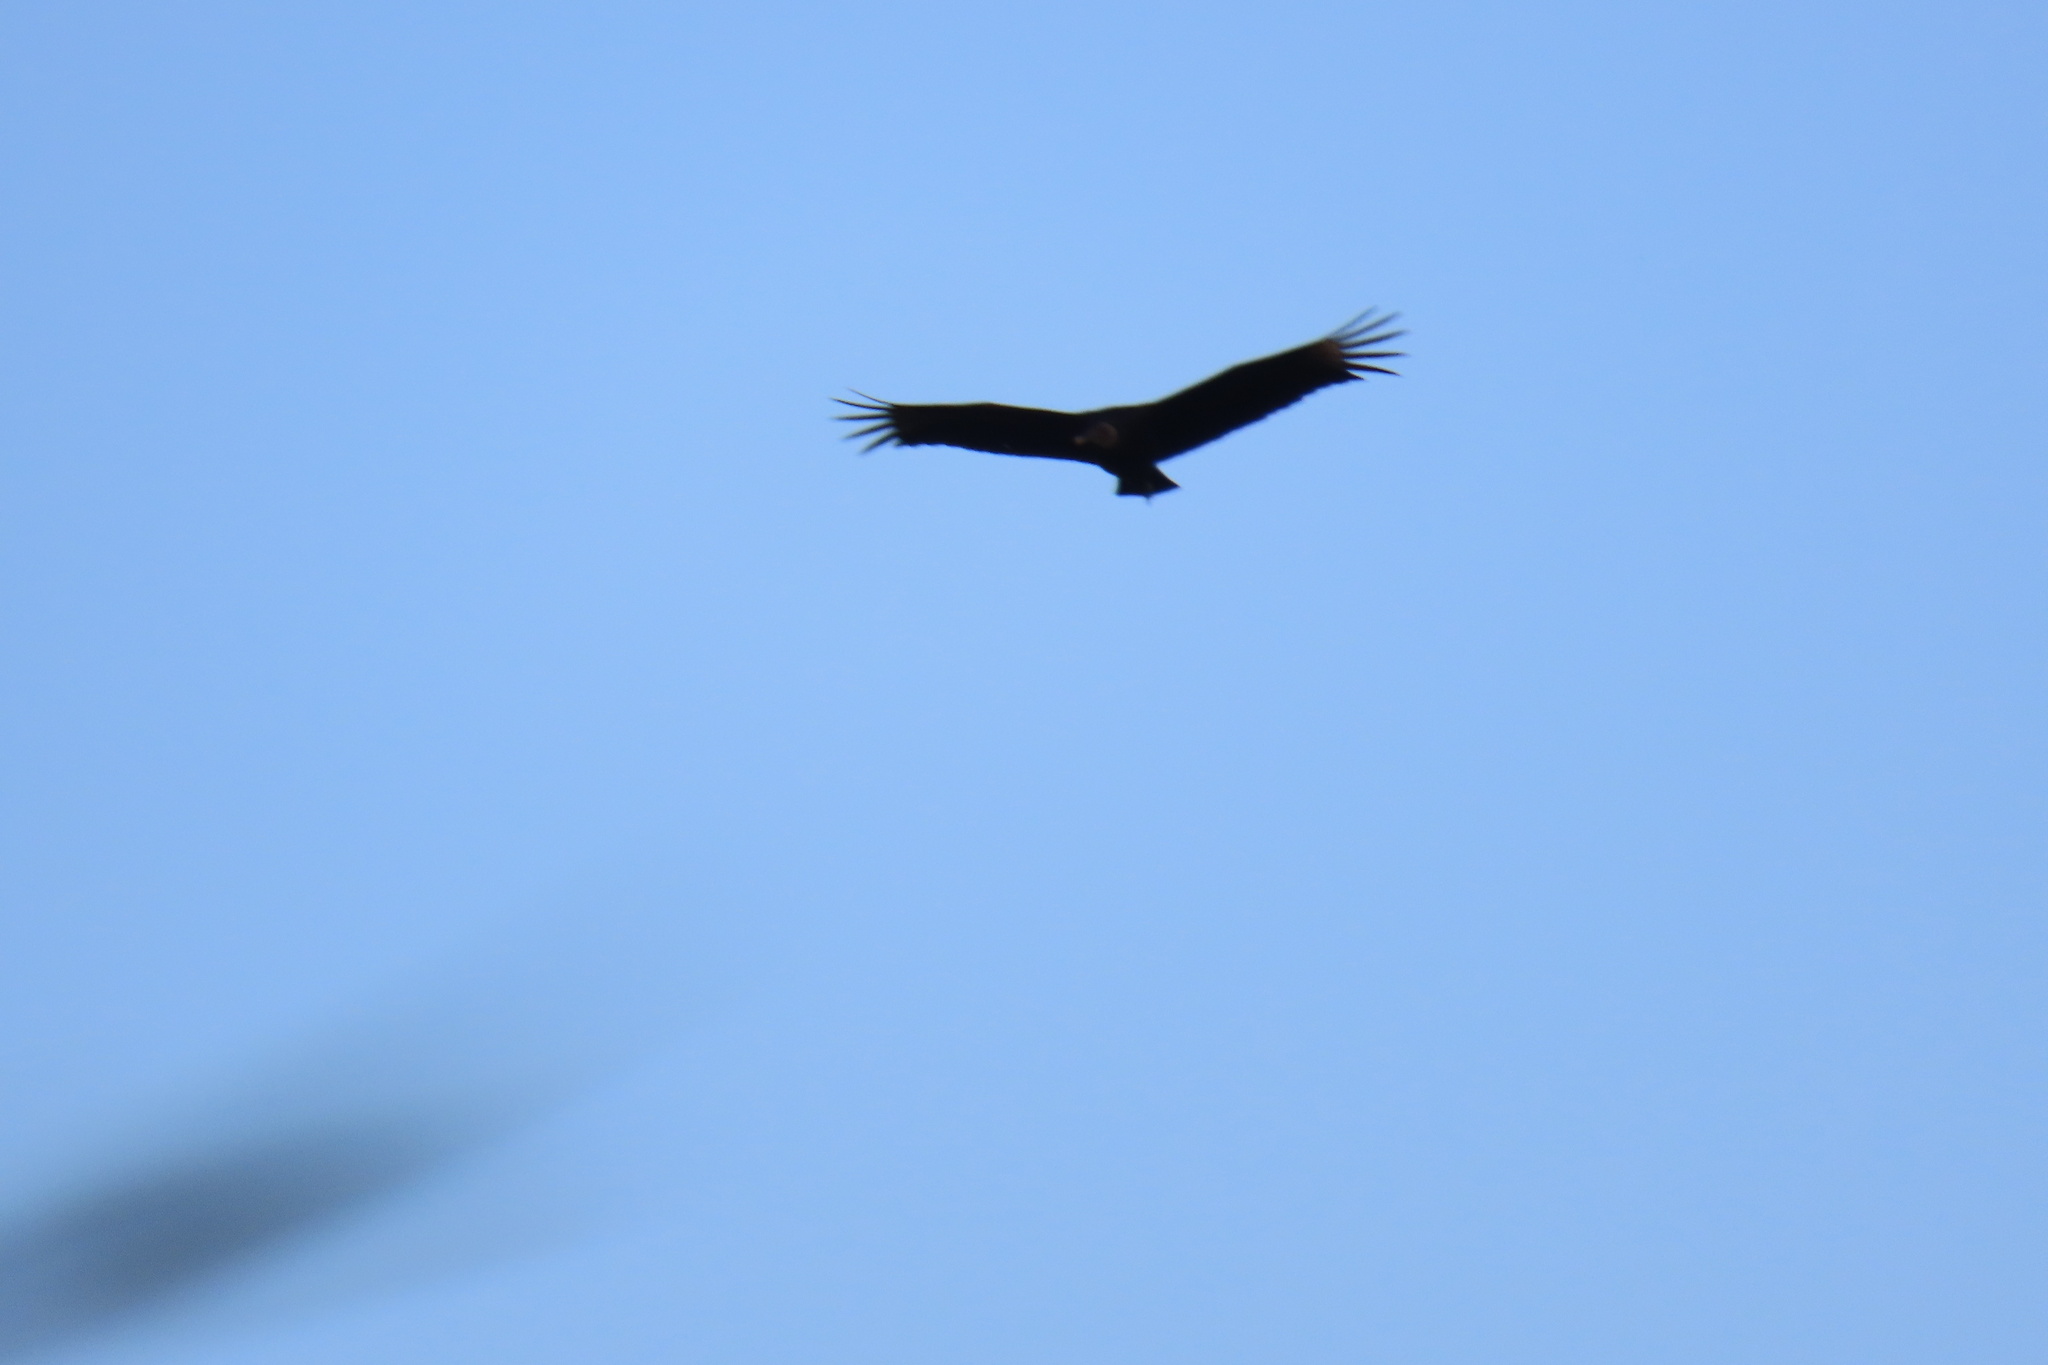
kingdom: Animalia
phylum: Chordata
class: Aves
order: Accipitriformes
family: Cathartidae
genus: Coragyps
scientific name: Coragyps atratus
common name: Black vulture
